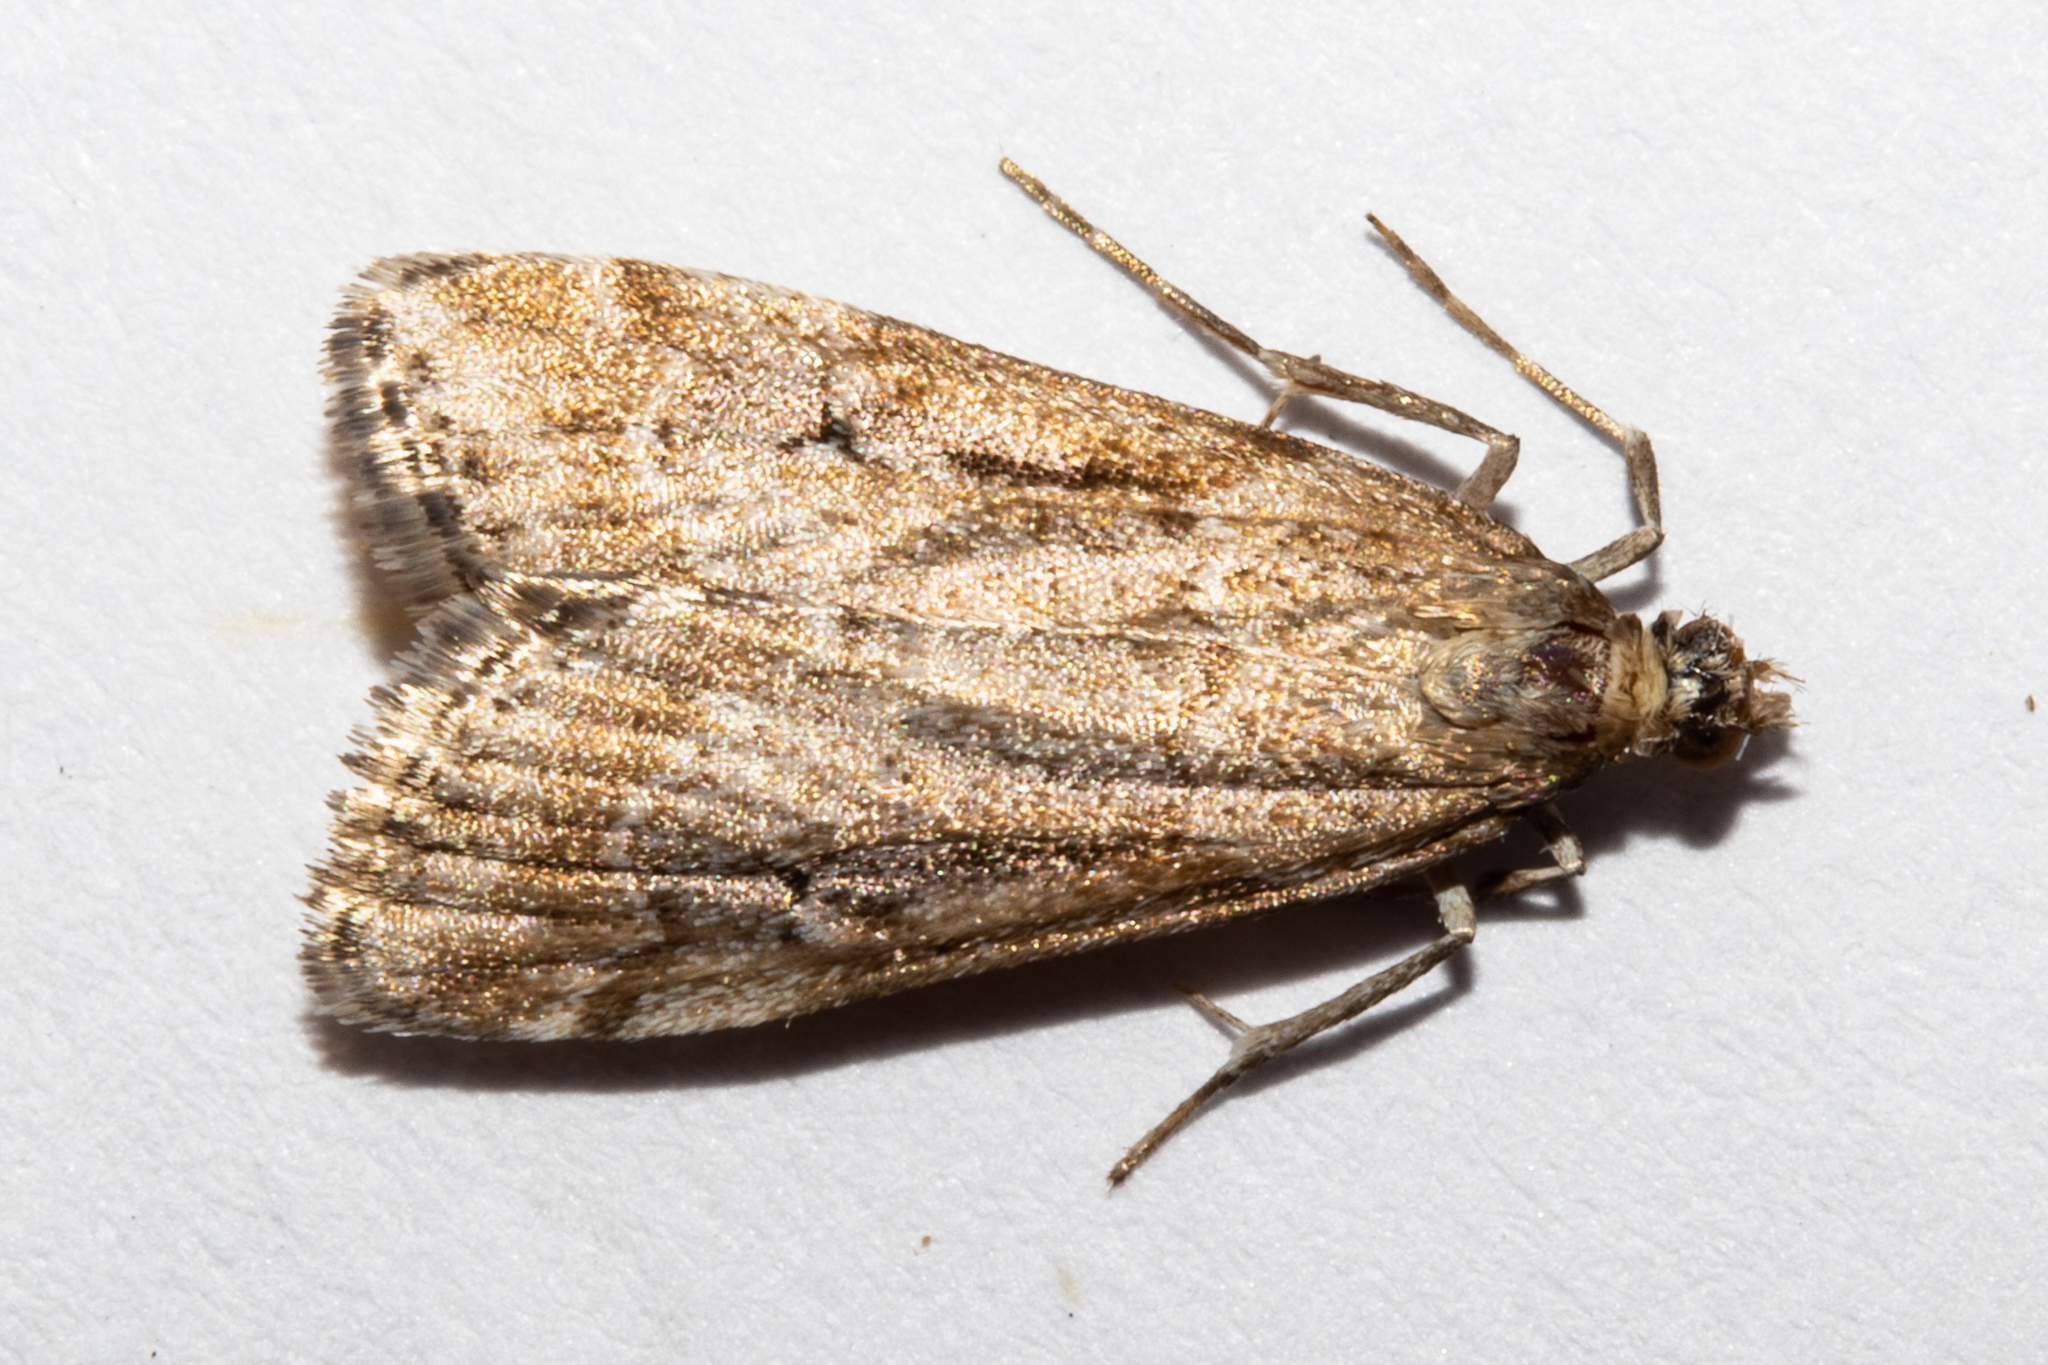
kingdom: Animalia
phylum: Arthropoda
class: Insecta
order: Lepidoptera
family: Crambidae
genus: Eudonia
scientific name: Eudonia chalara
